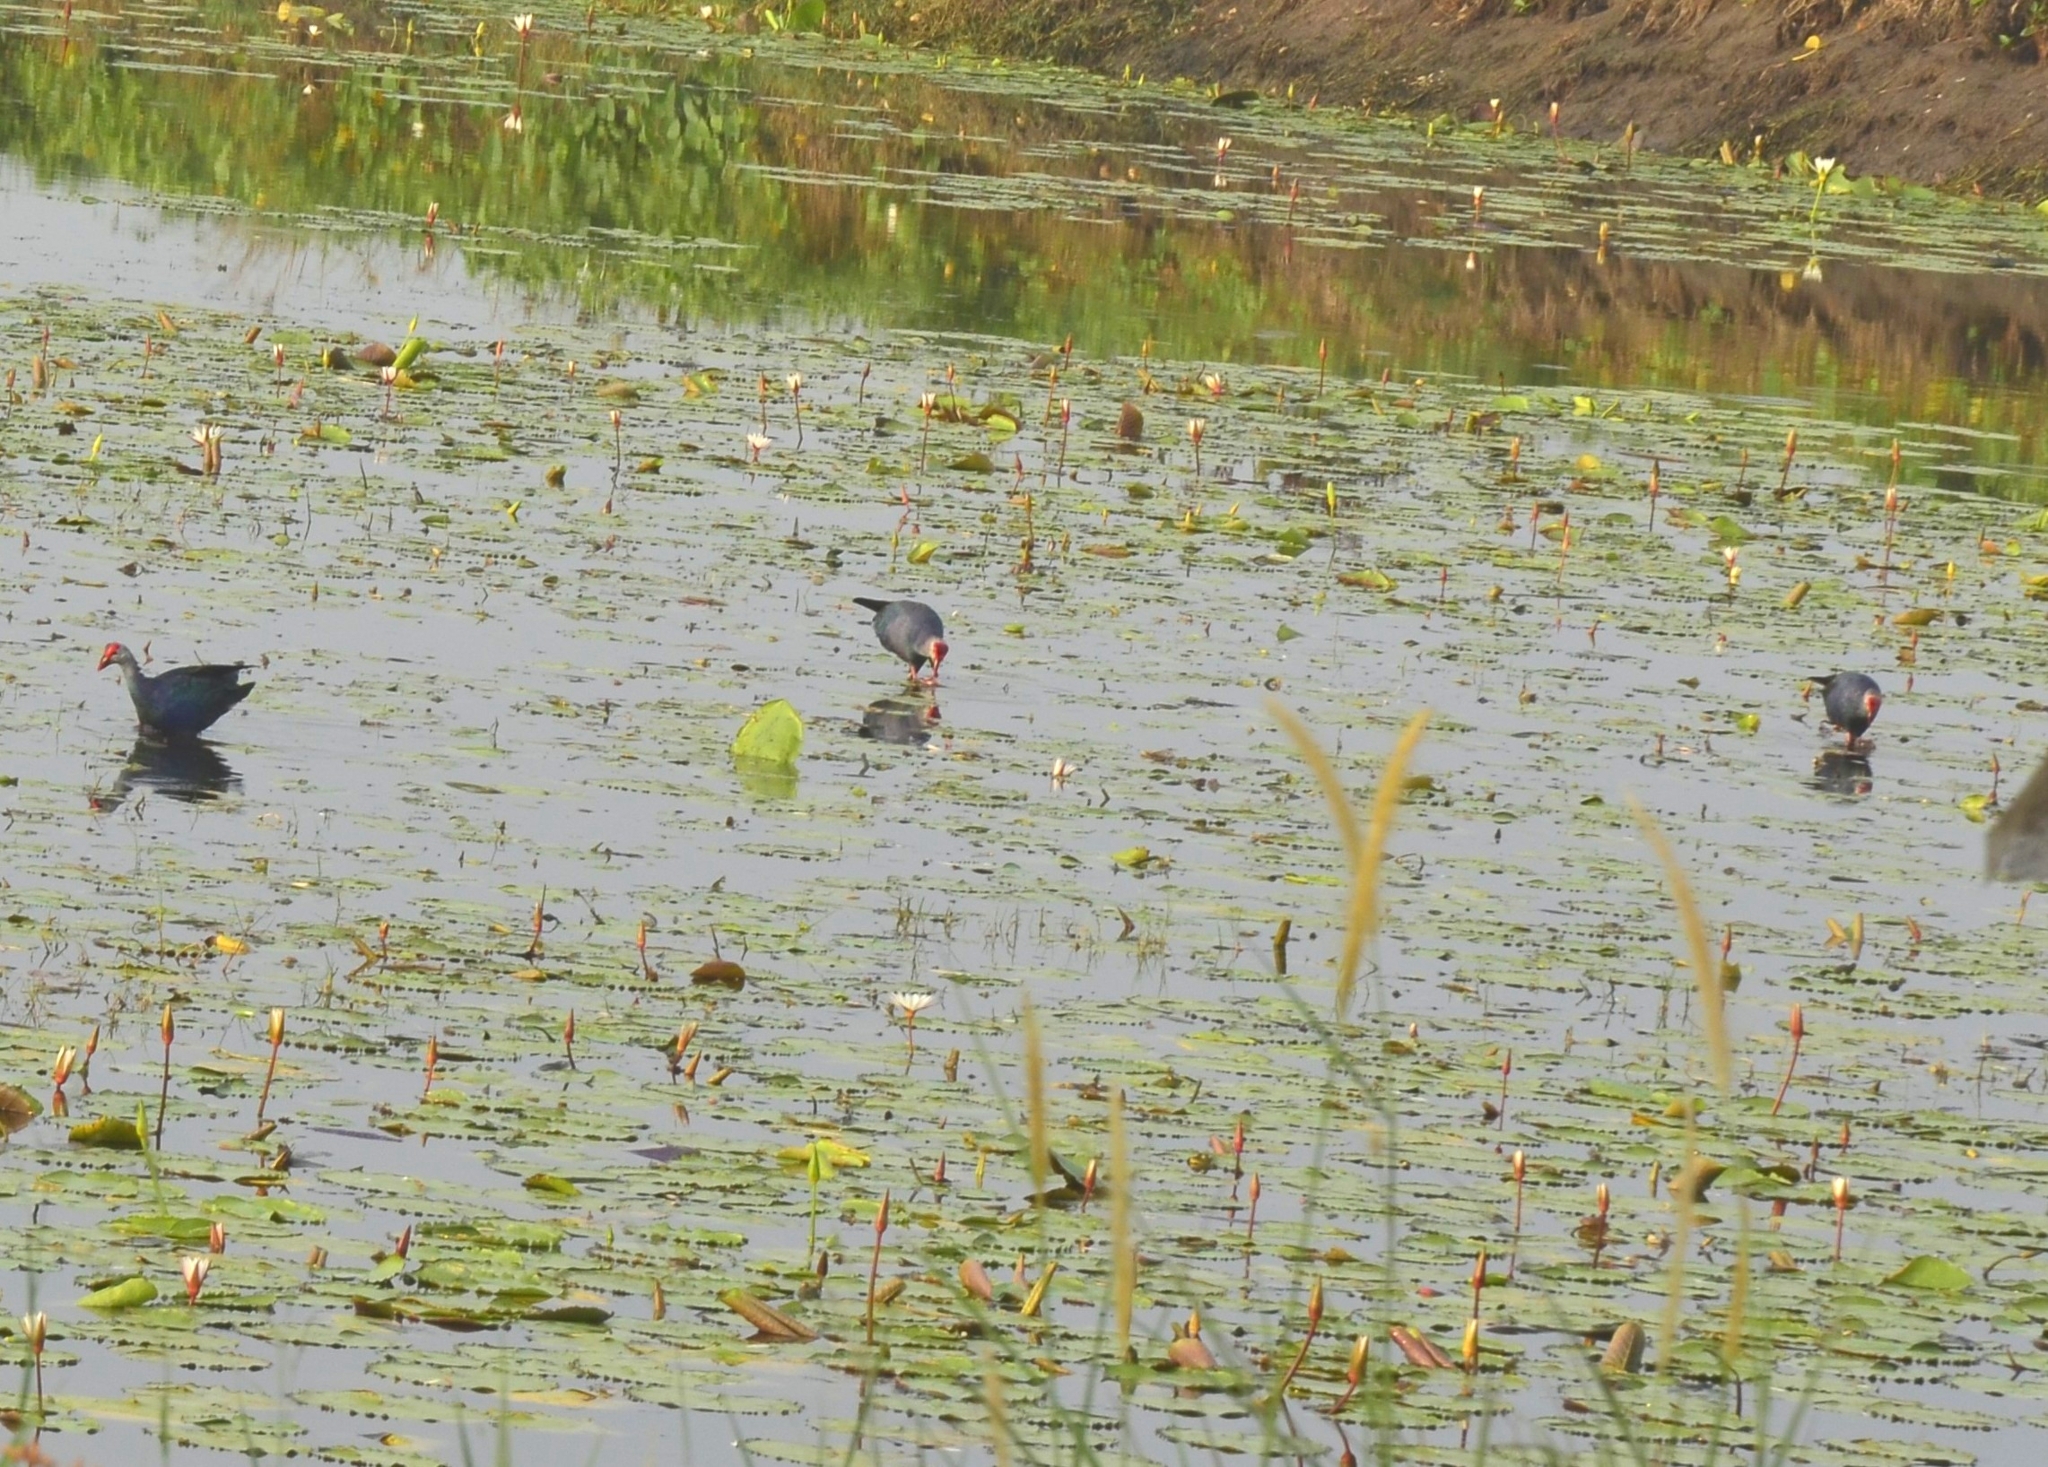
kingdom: Animalia
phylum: Chordata
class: Aves
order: Gruiformes
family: Rallidae
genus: Porphyrio
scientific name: Porphyrio porphyrio
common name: Purple swamphen
